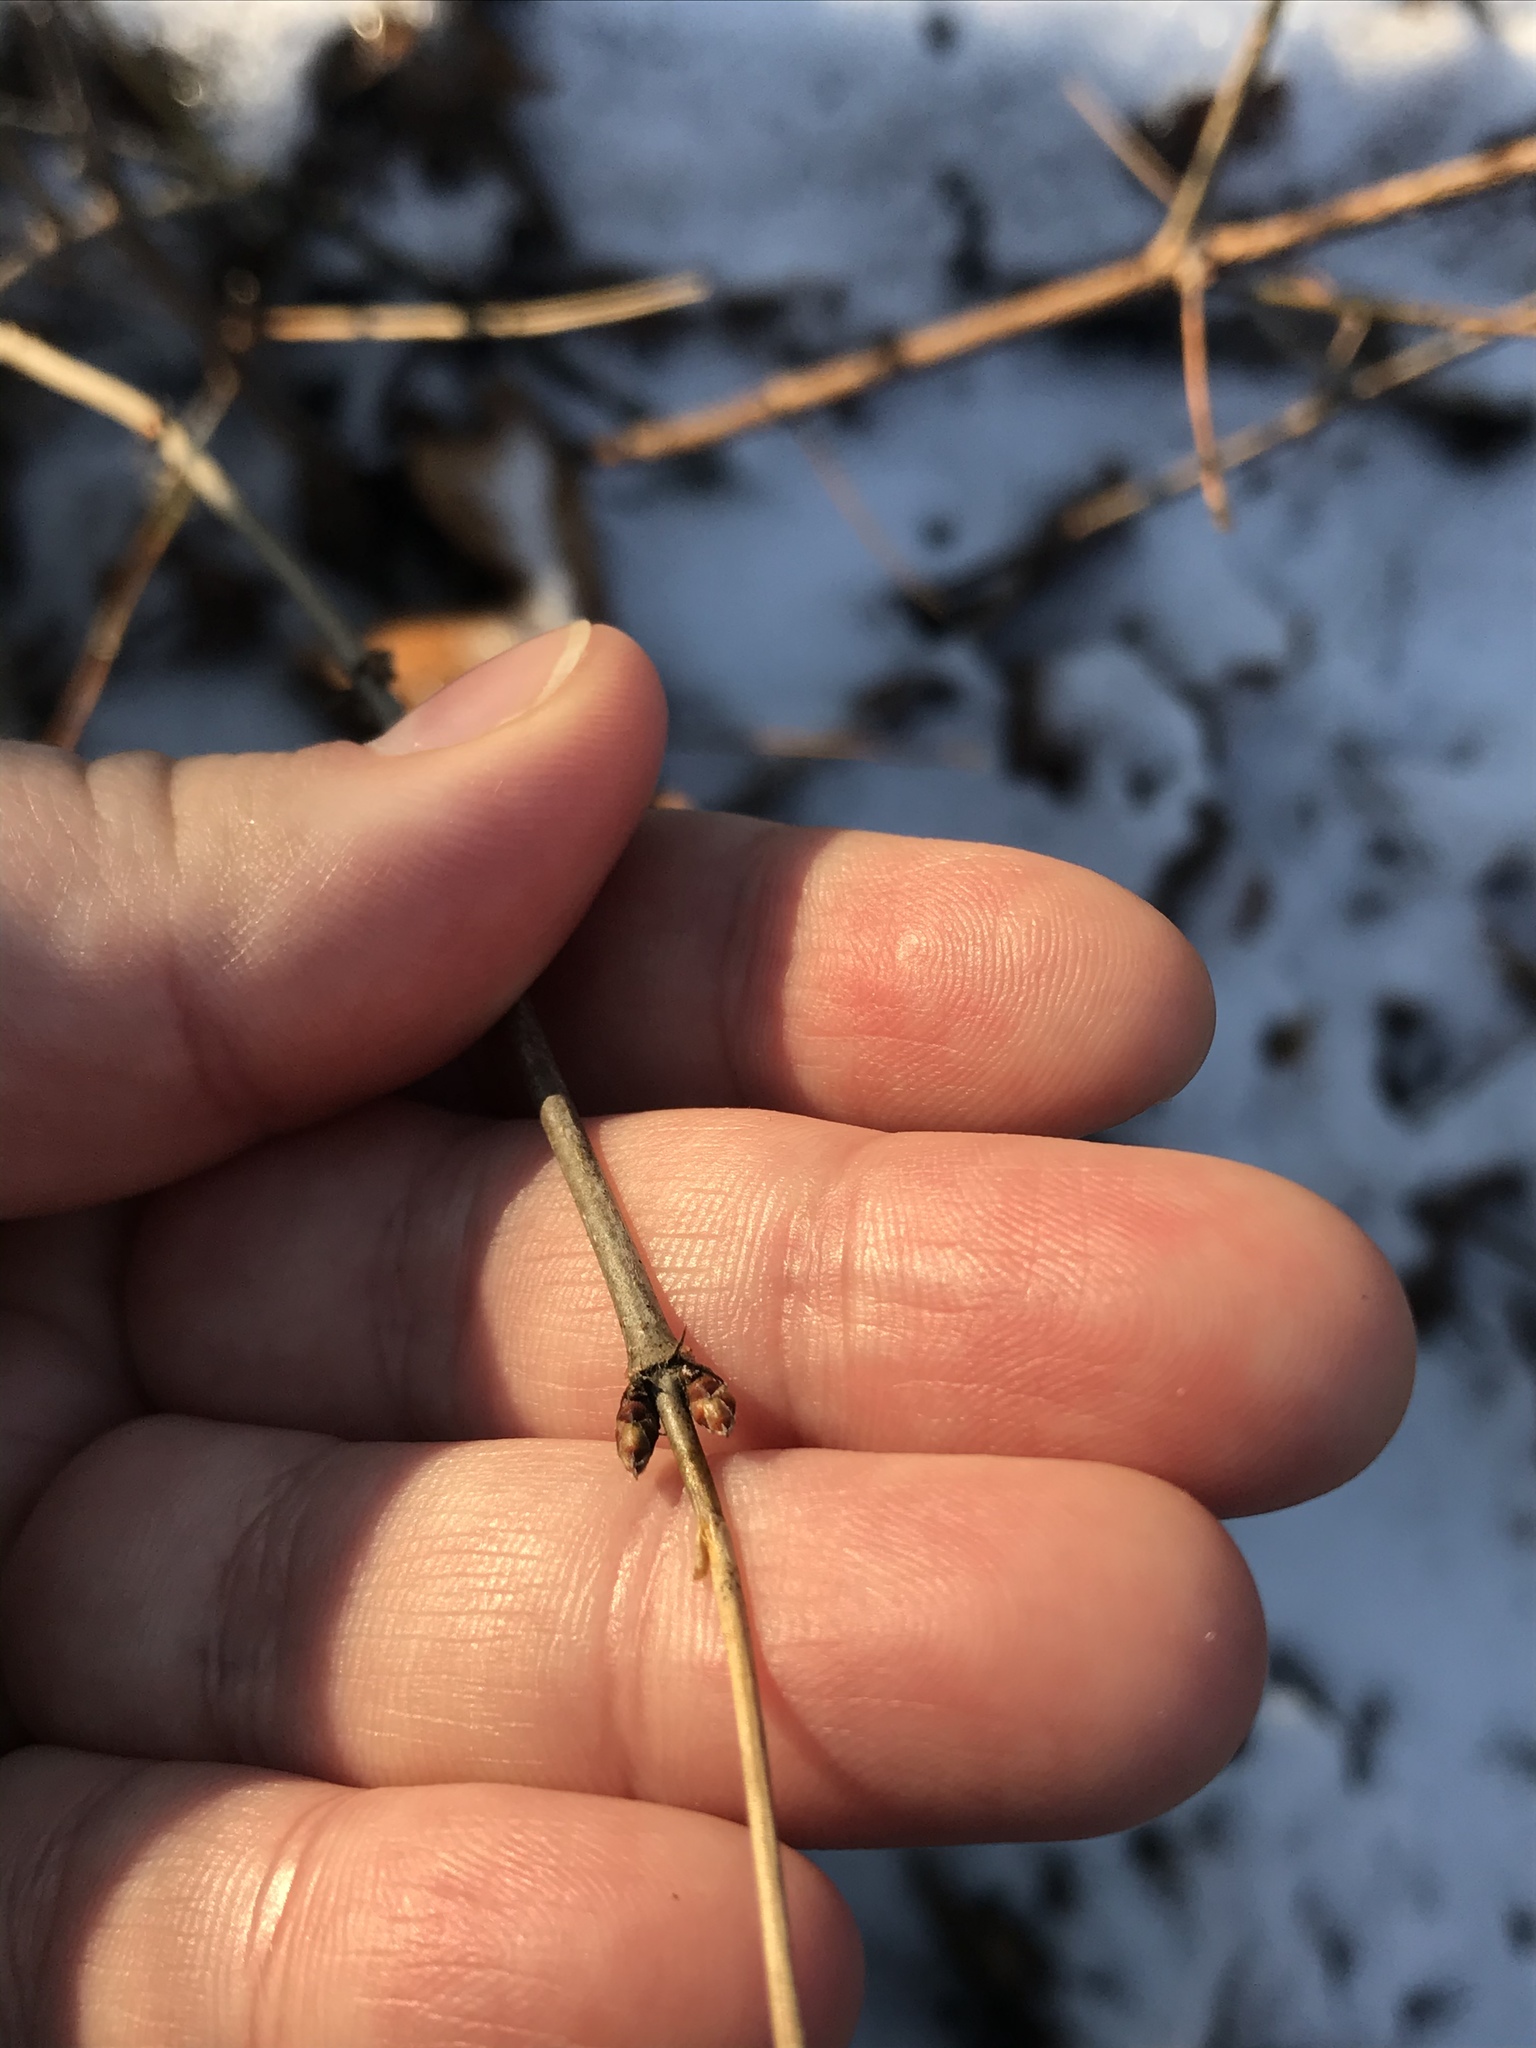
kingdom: Plantae
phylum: Tracheophyta
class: Magnoliopsida
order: Rosales
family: Rosaceae
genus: Rhodotypos
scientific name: Rhodotypos scandens
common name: Jetbead
